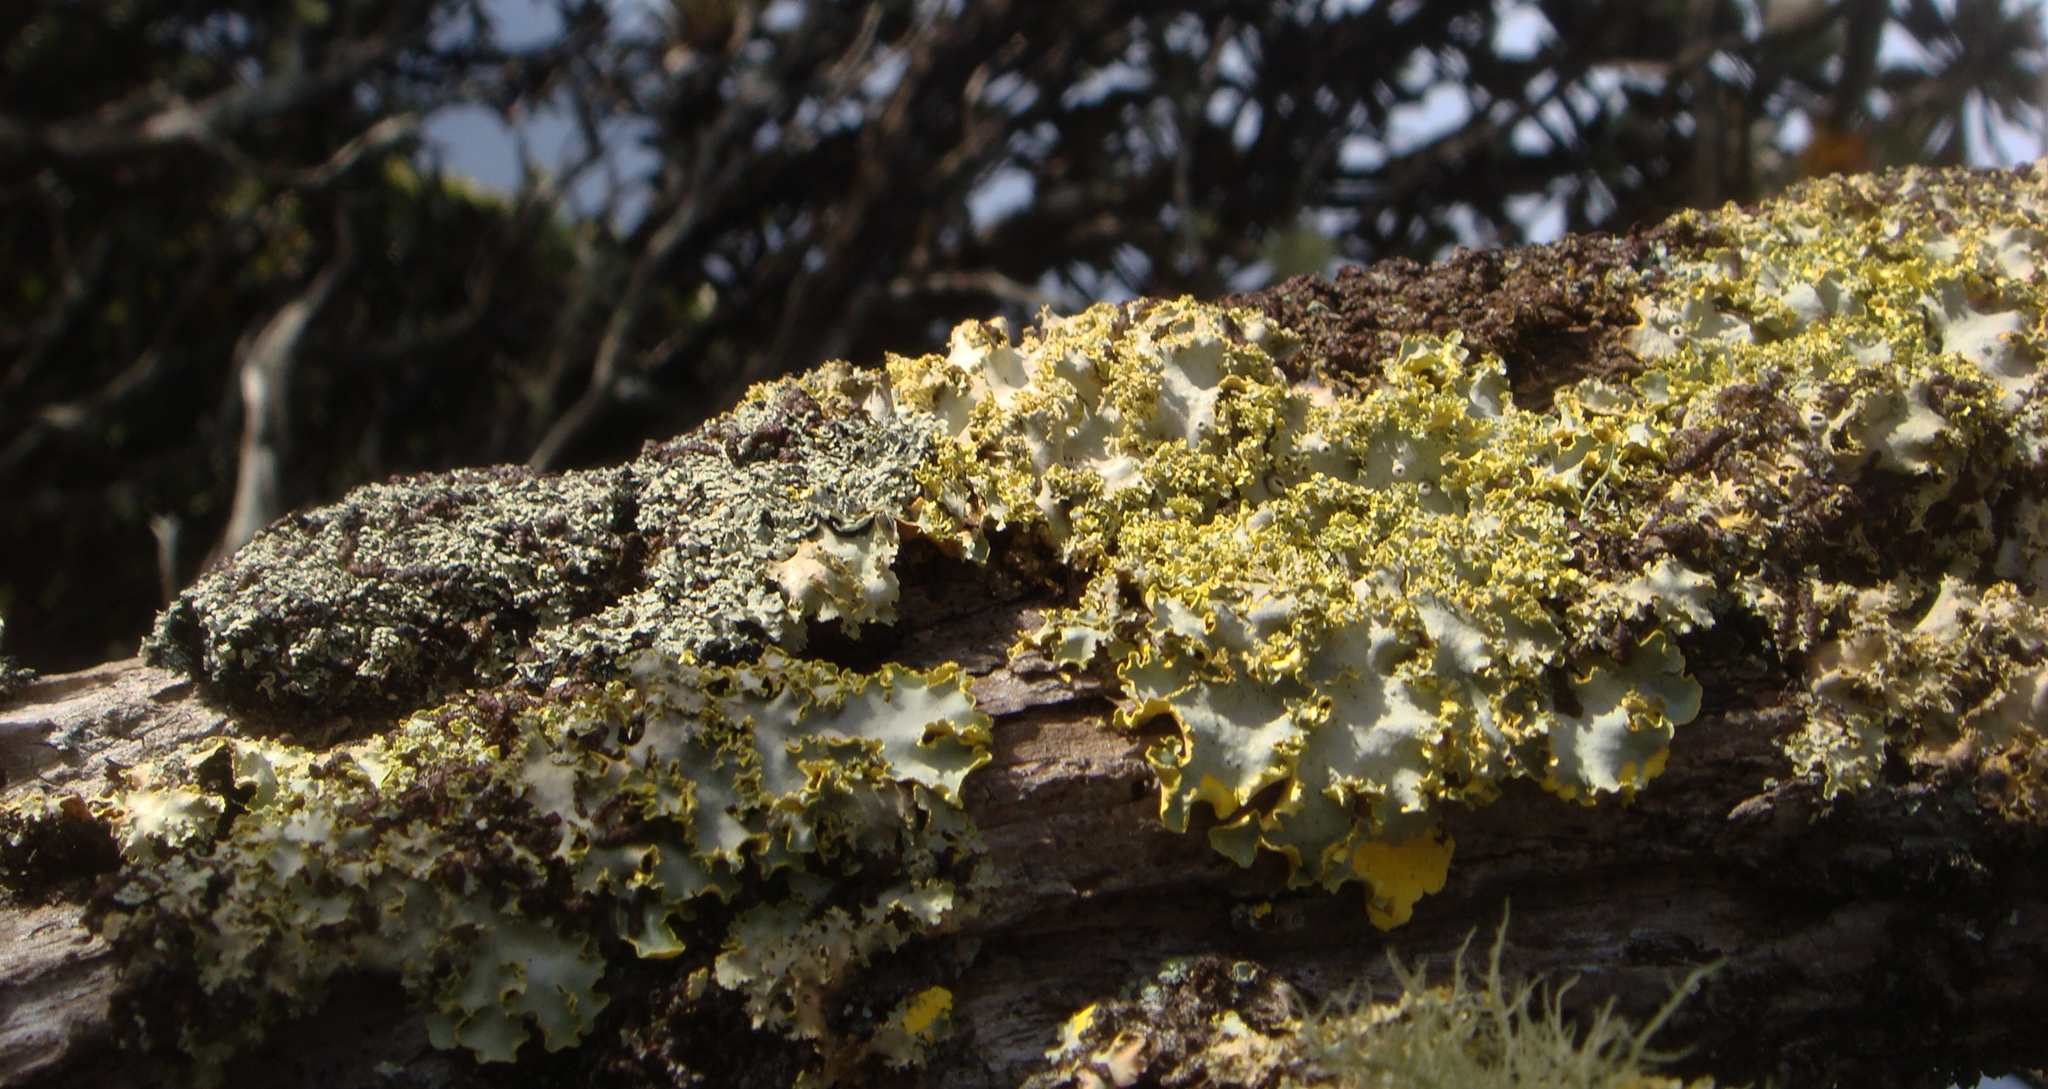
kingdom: Fungi
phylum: Ascomycota
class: Lecanoromycetes
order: Peltigerales
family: Lobariaceae
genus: Podostictina
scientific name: Podostictina pickeringii
